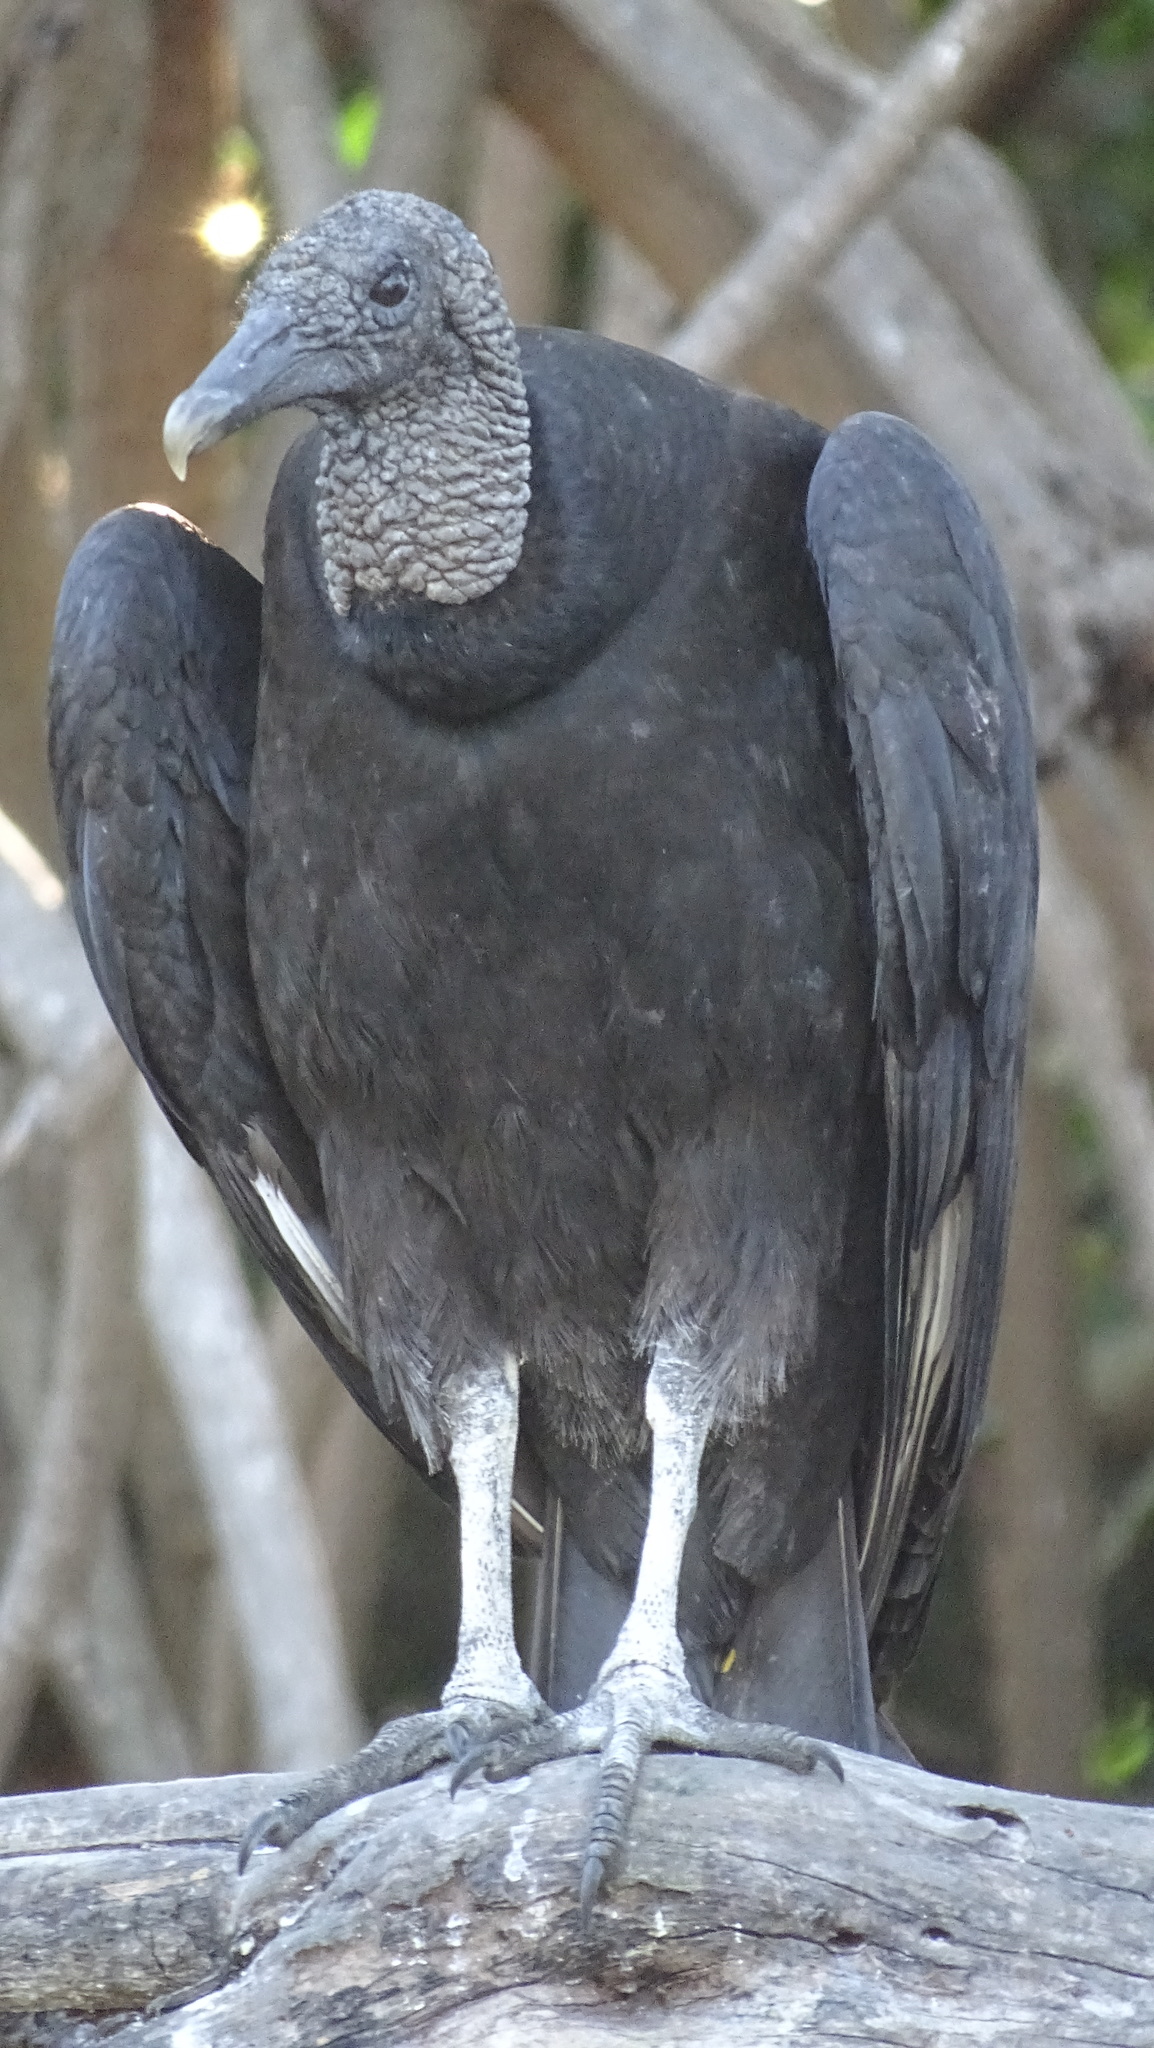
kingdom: Animalia
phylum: Chordata
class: Aves
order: Accipitriformes
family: Cathartidae
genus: Coragyps
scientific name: Coragyps atratus
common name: Black vulture
